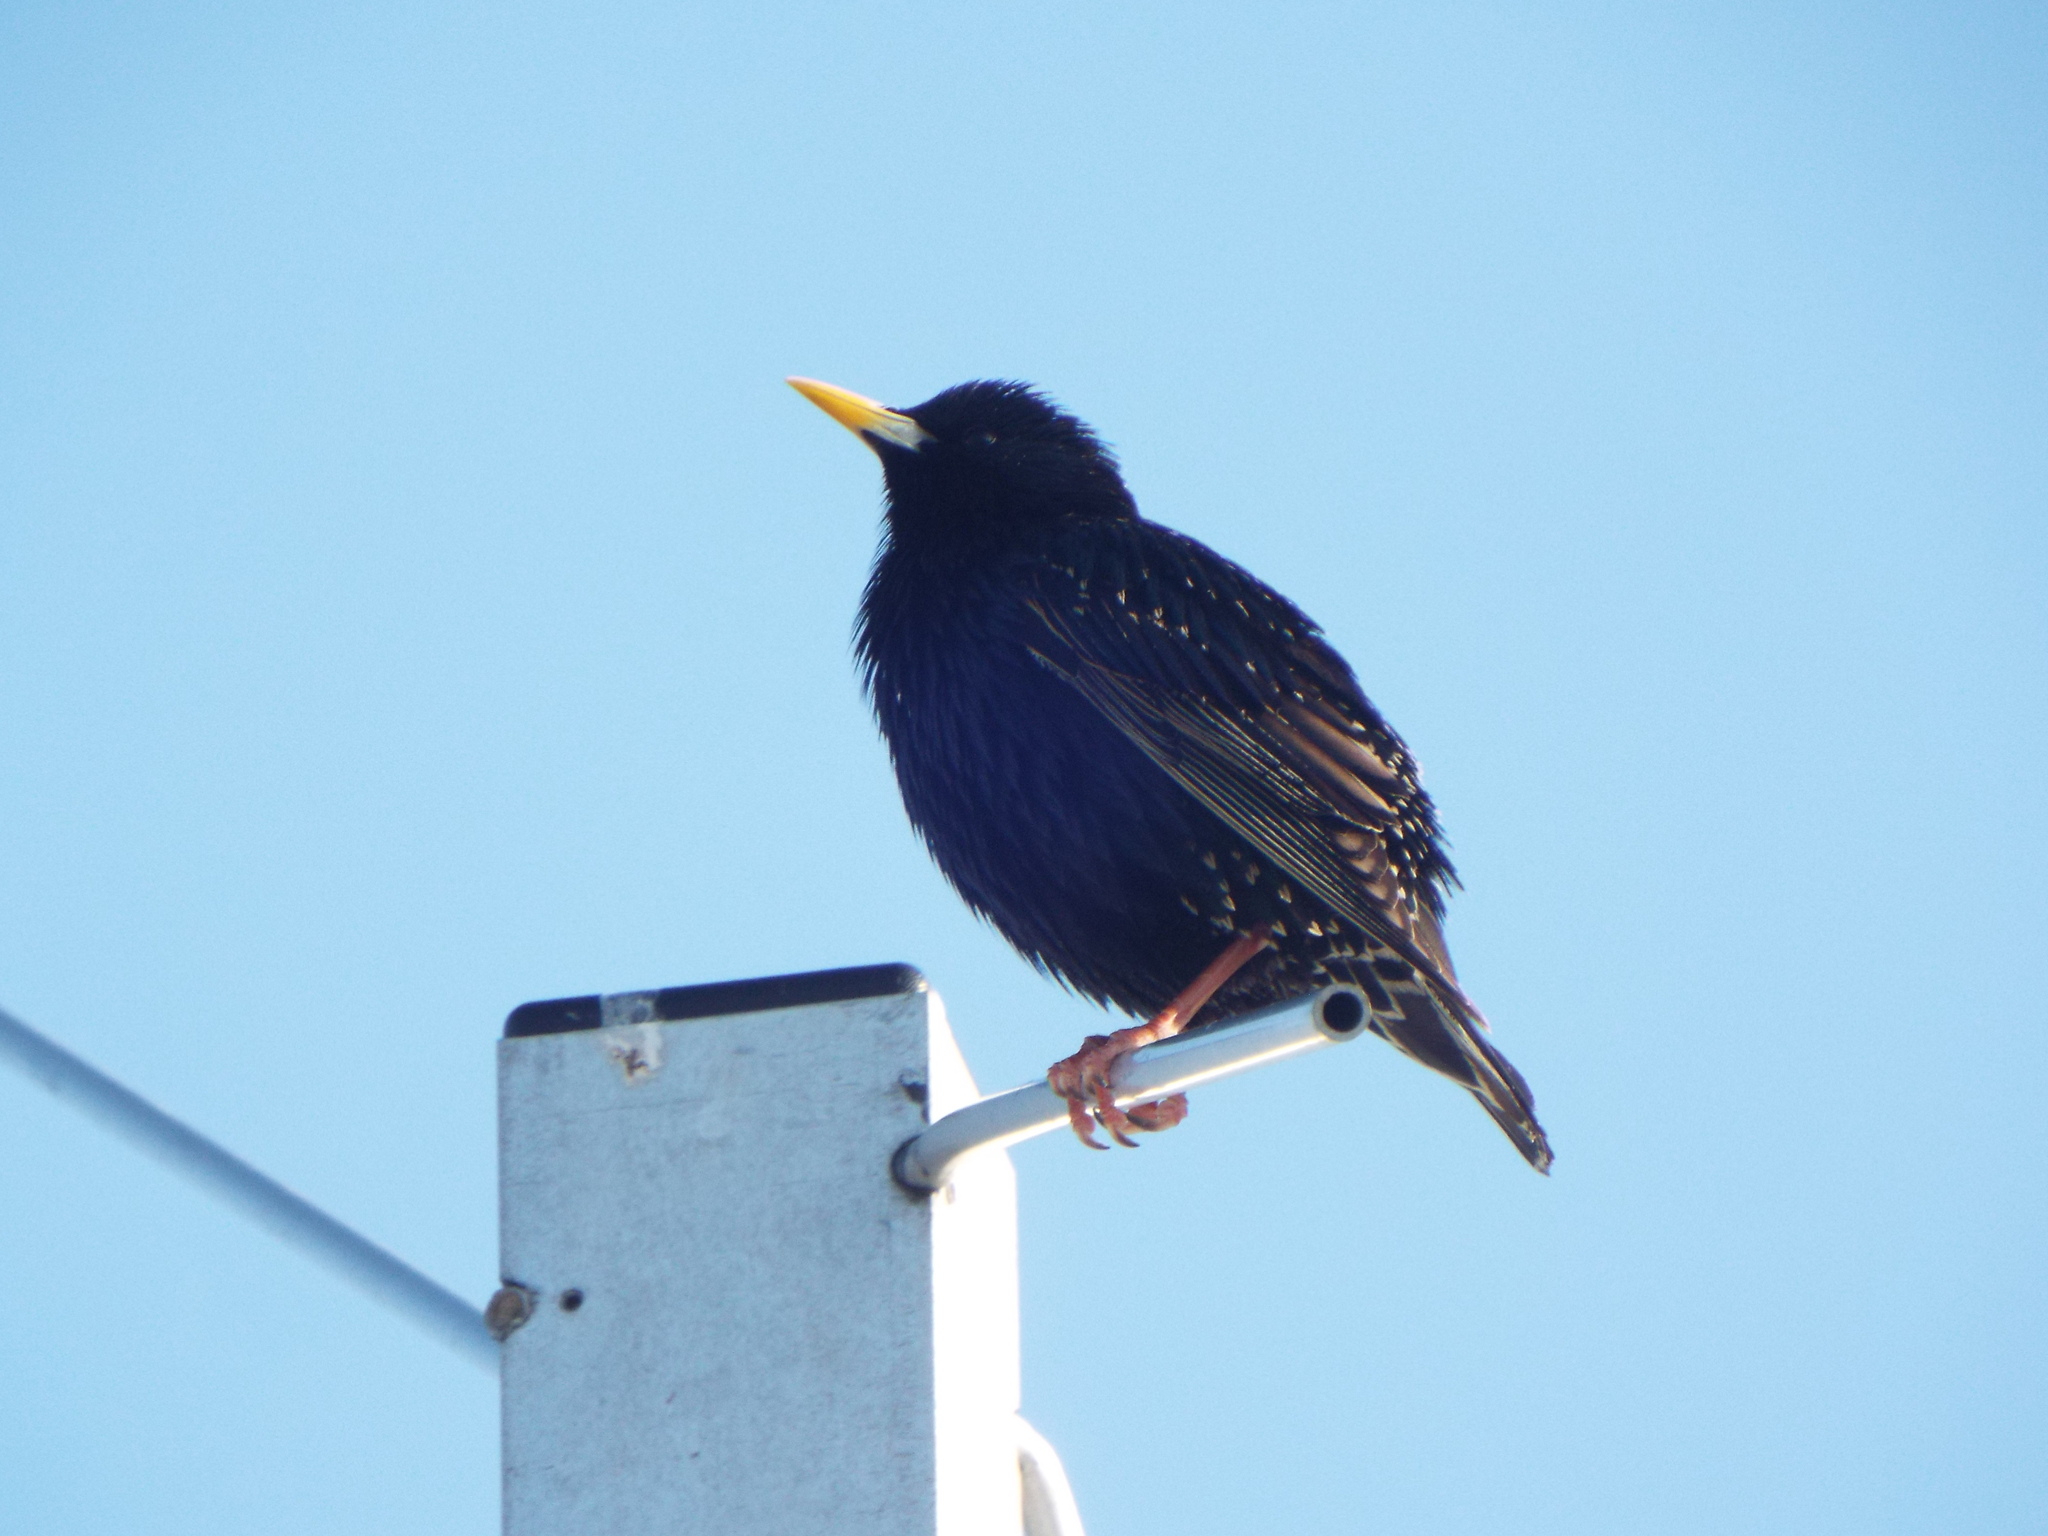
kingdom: Animalia
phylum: Chordata
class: Aves
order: Passeriformes
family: Sturnidae
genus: Sturnus
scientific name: Sturnus vulgaris
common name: Common starling
